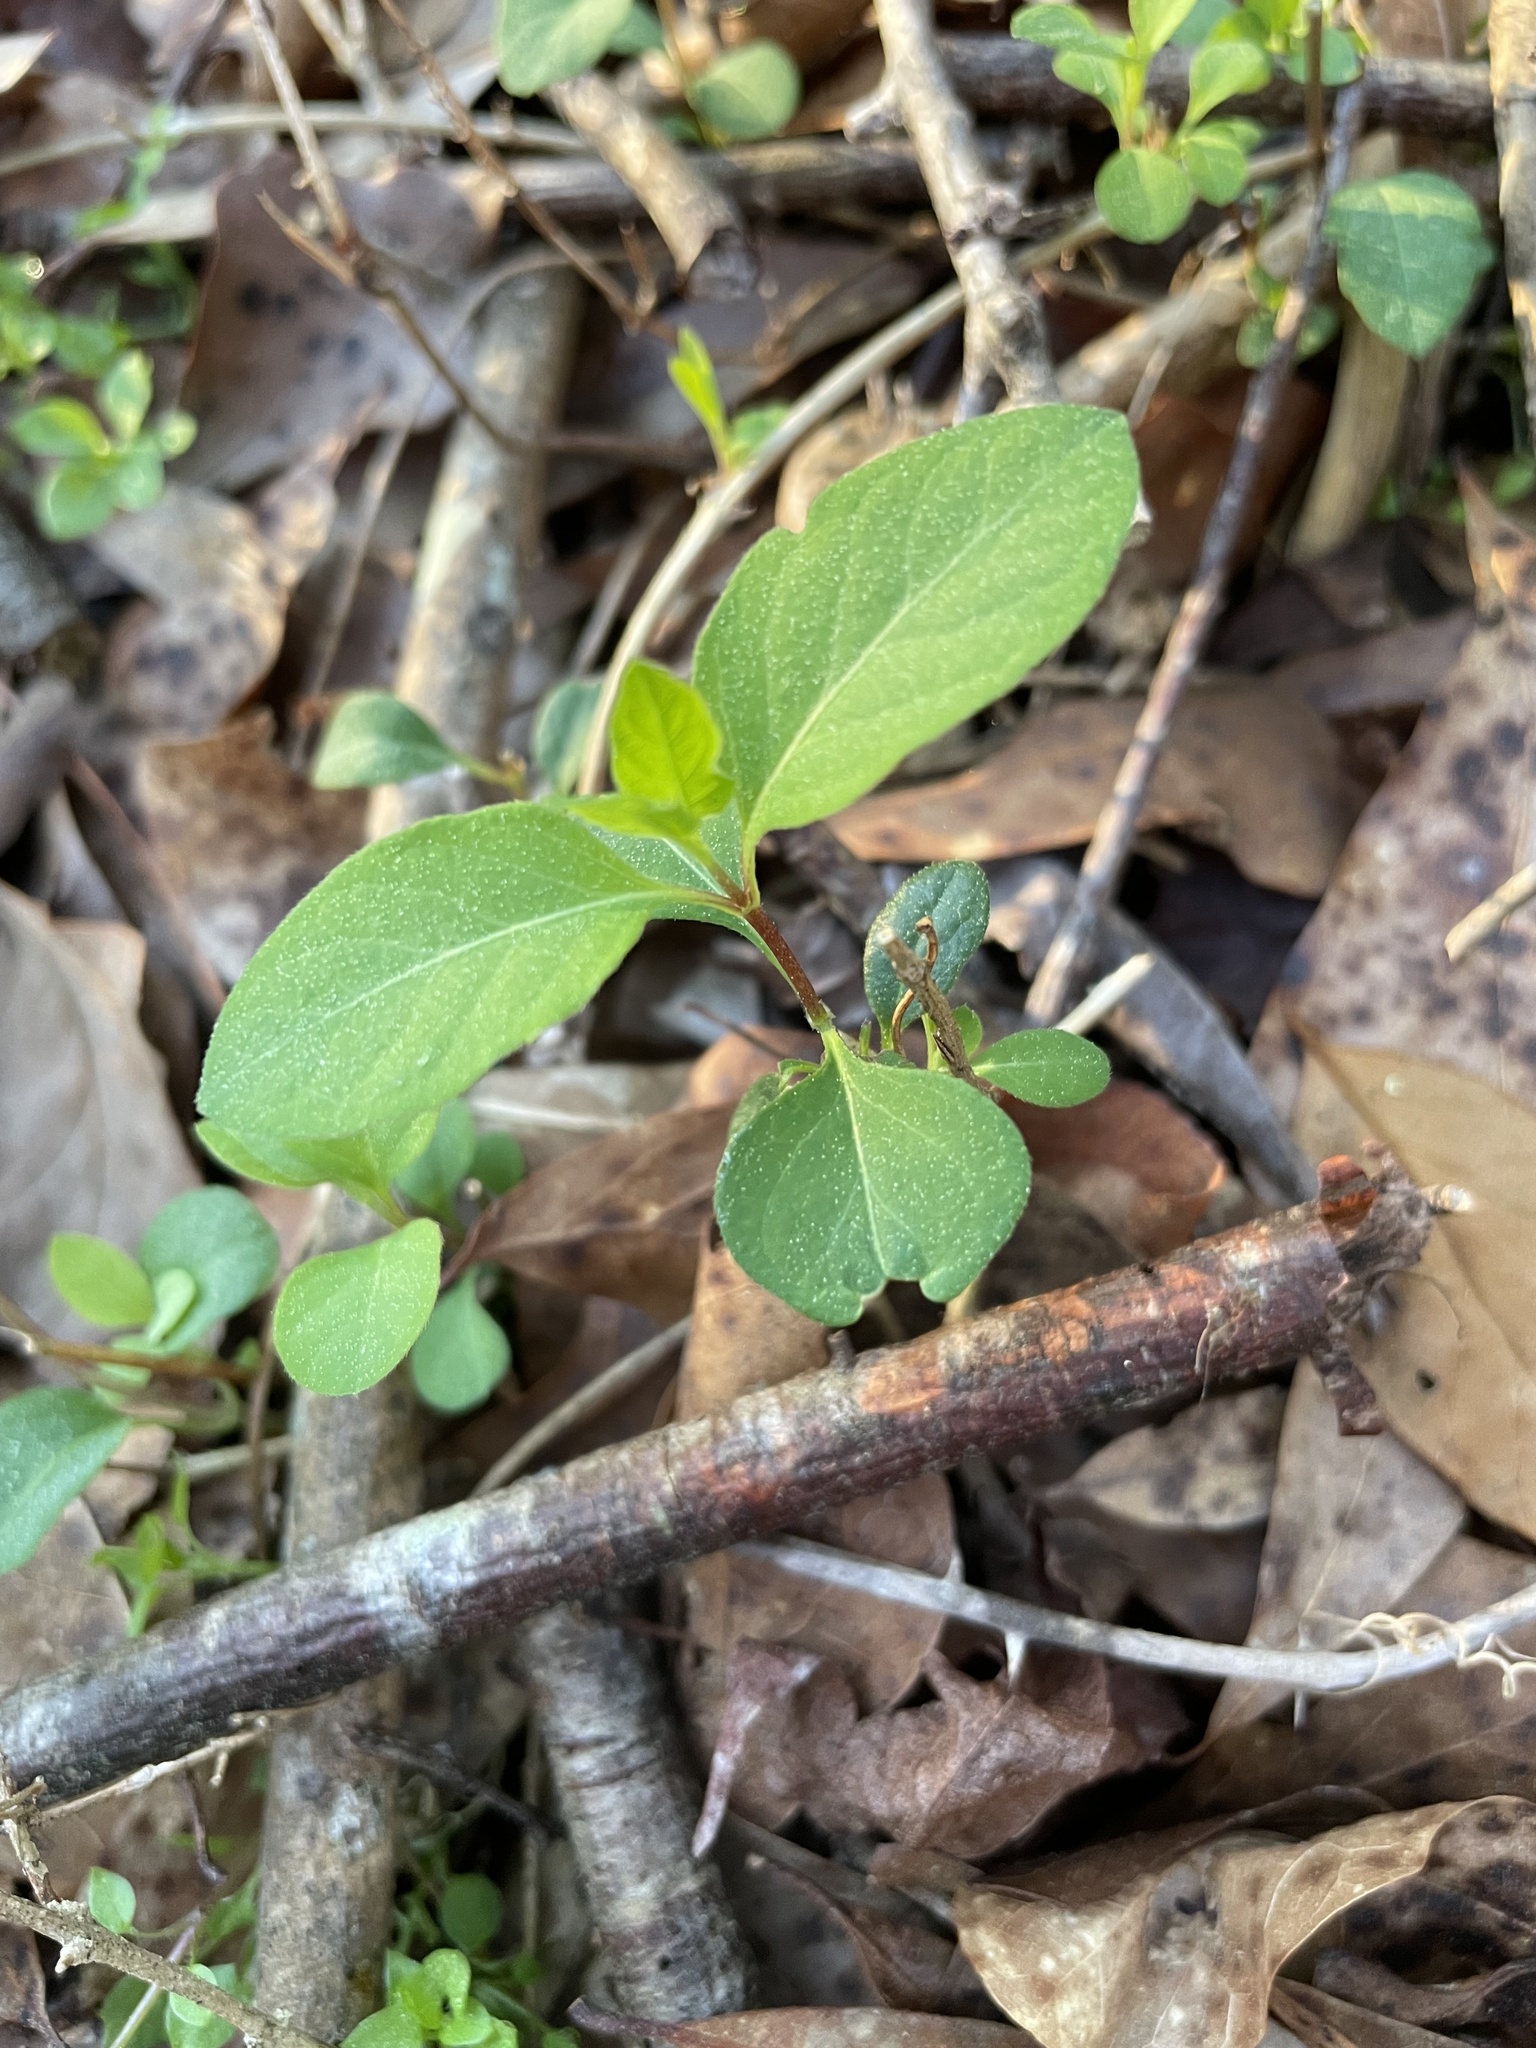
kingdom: Plantae
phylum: Tracheophyta
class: Magnoliopsida
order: Dipsacales
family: Caprifoliaceae
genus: Lonicera
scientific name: Lonicera japonica
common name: Japanese honeysuckle
